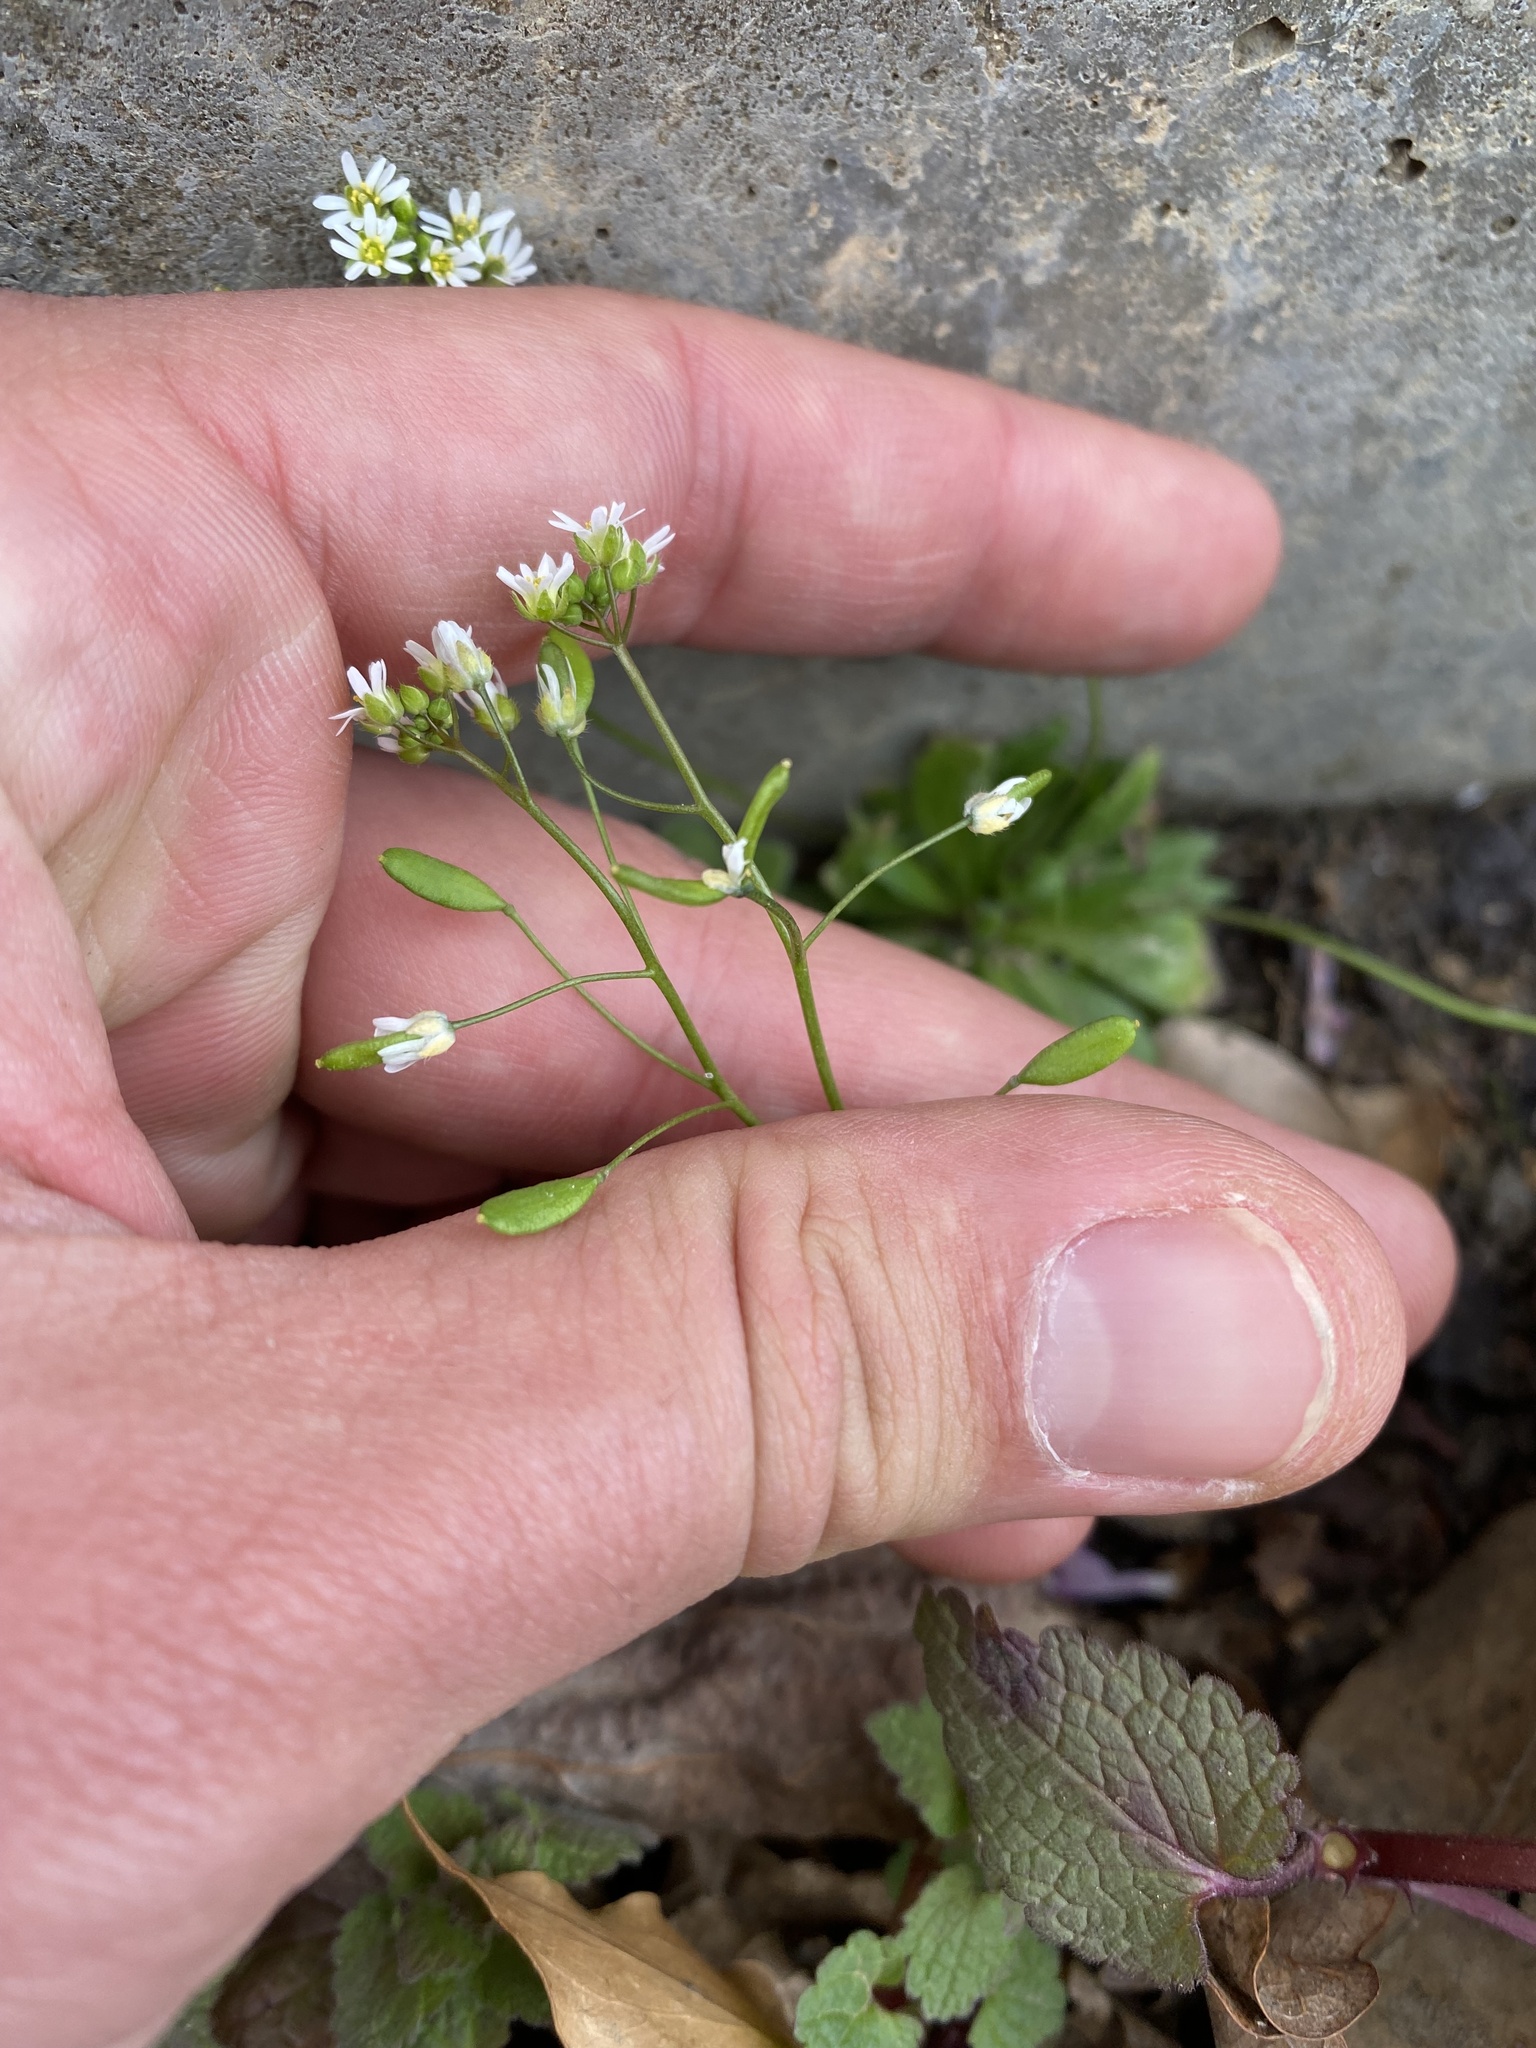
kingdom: Plantae
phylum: Tracheophyta
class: Magnoliopsida
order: Brassicales
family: Brassicaceae
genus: Draba
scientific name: Draba verna
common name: Spring draba
